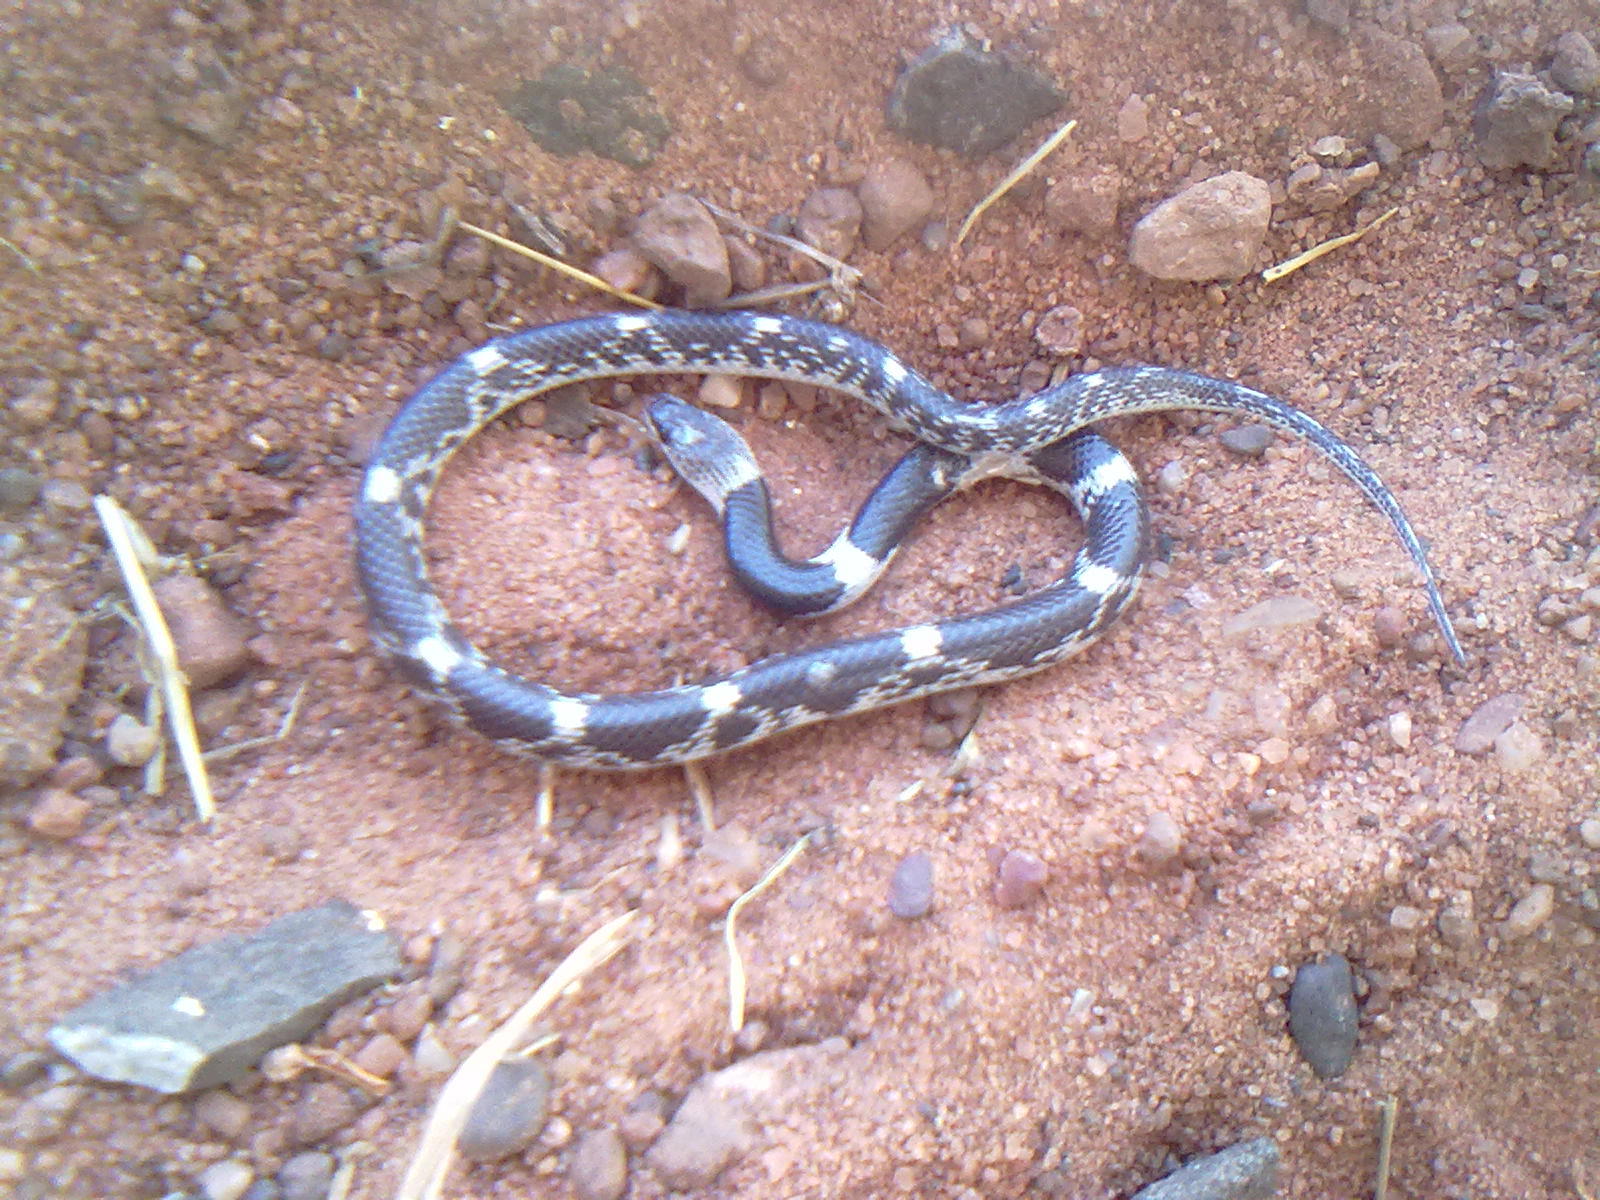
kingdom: Animalia
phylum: Chordata
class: Squamata
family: Colubridae
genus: Lycodon
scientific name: Lycodon striatus
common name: Barred wolf snake
